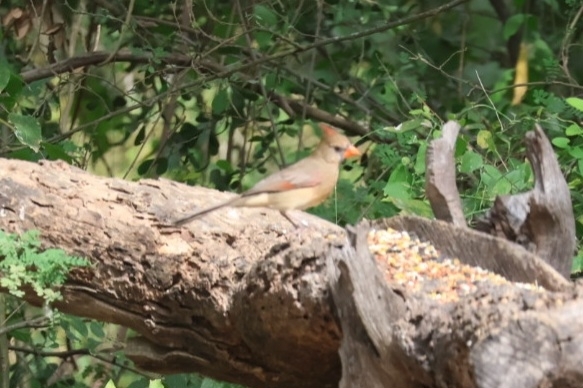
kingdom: Animalia
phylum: Chordata
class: Aves
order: Passeriformes
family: Cardinalidae
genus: Cardinalis
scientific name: Cardinalis cardinalis
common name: Northern cardinal
